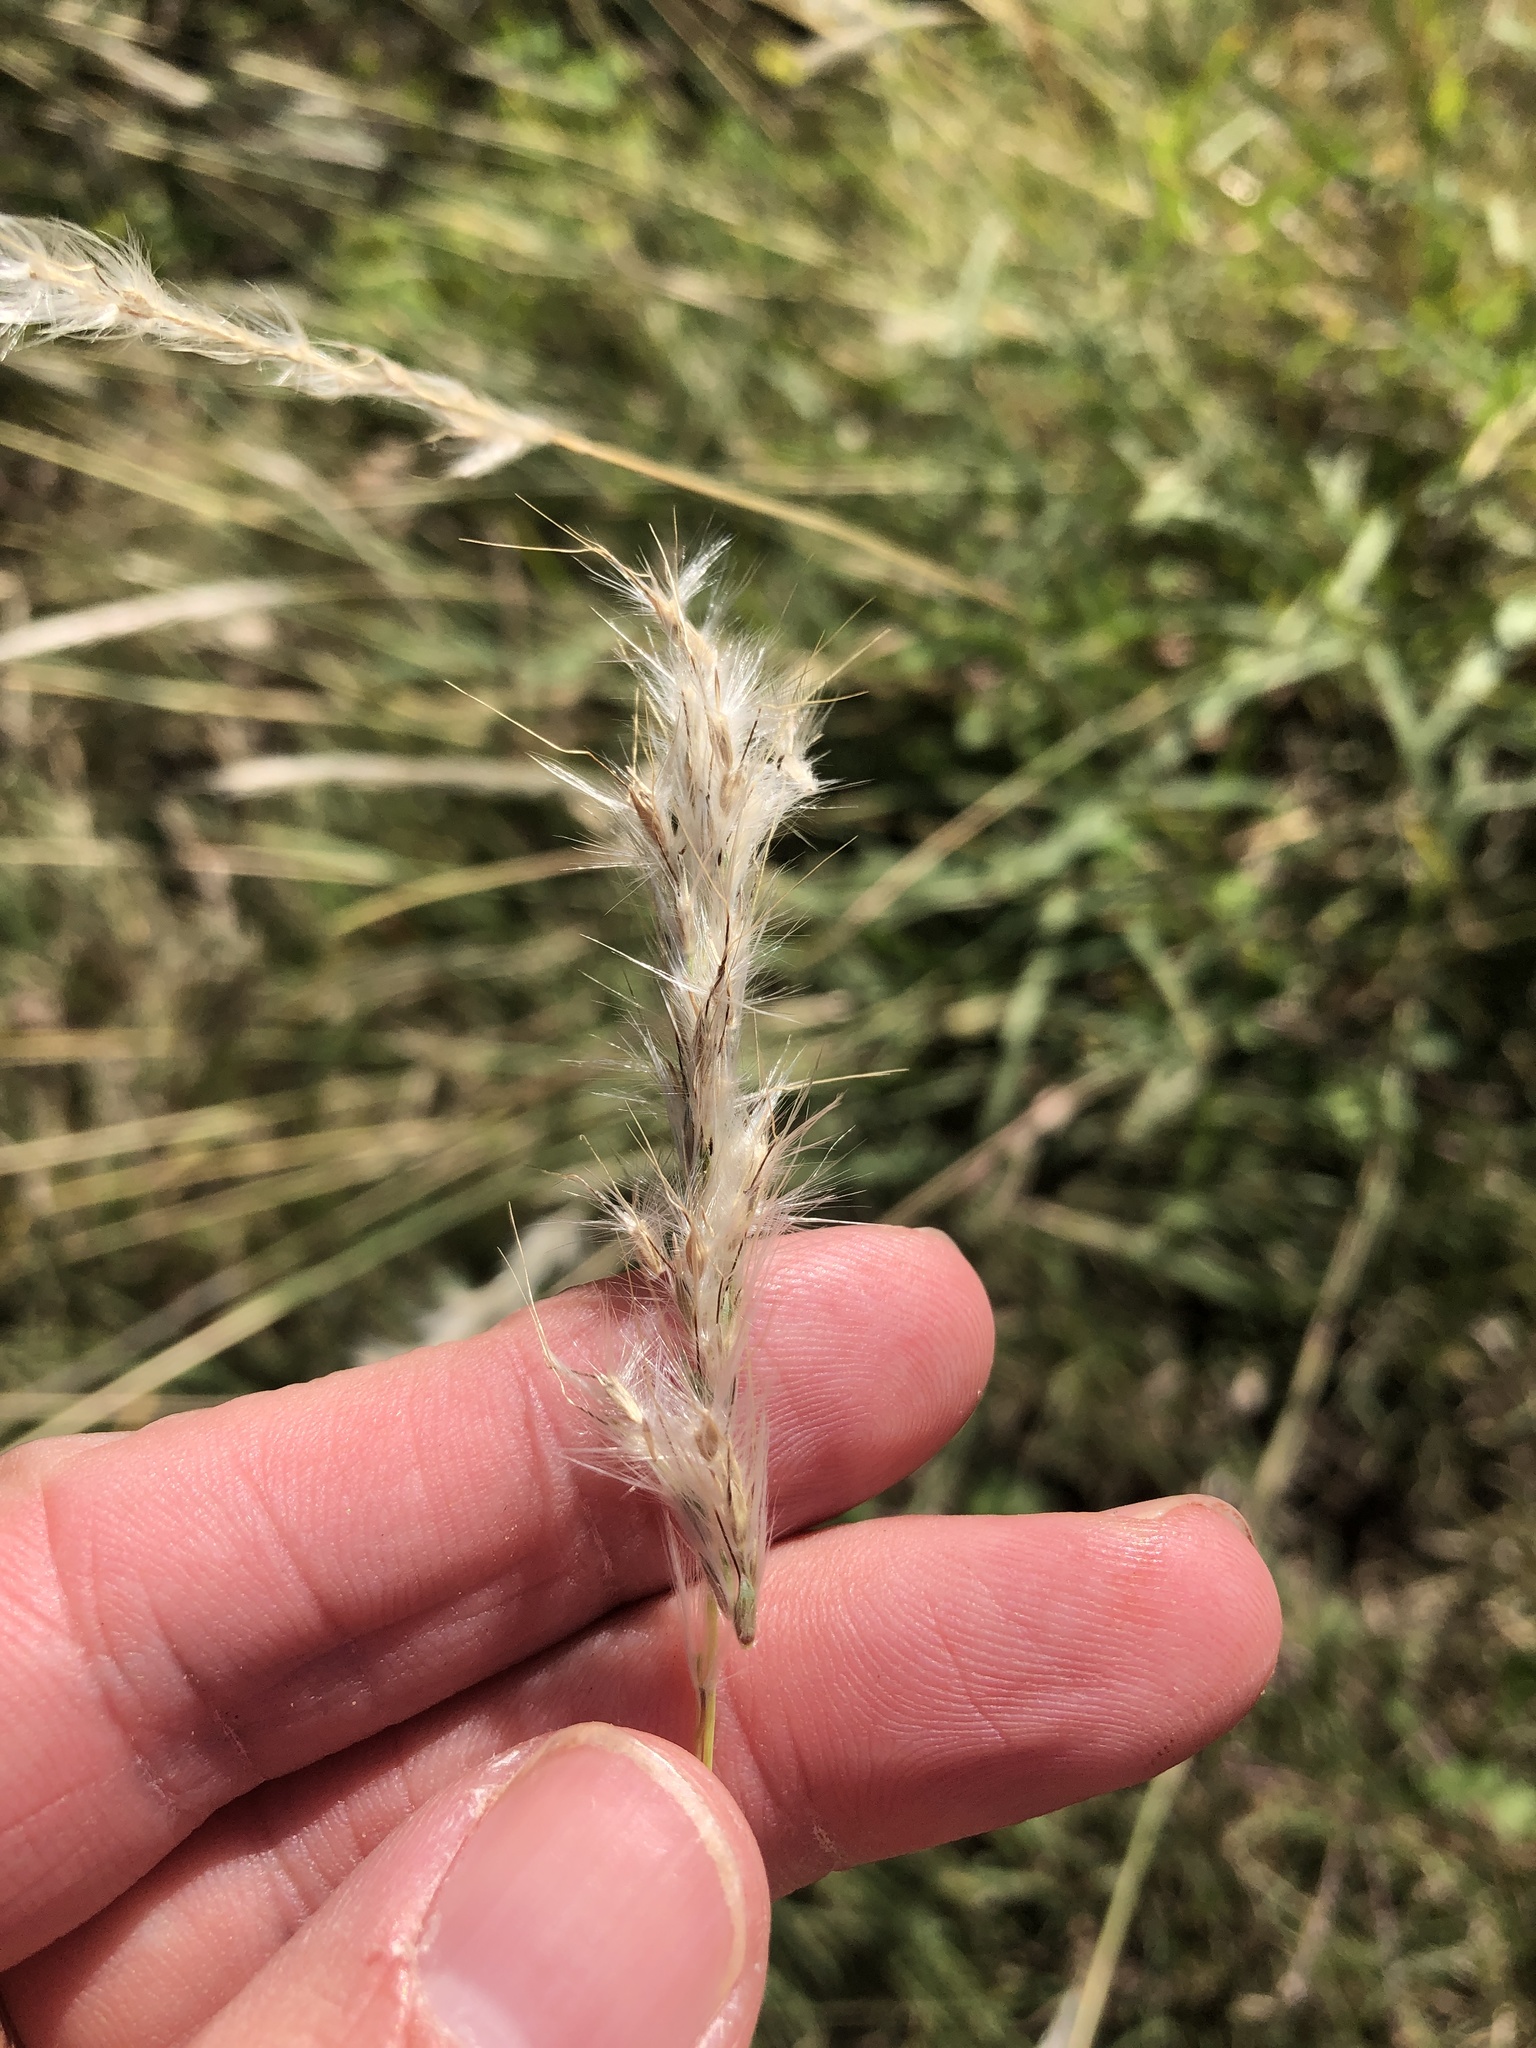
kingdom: Plantae
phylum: Tracheophyta
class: Liliopsida
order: Poales
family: Poaceae
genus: Bothriochloa
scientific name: Bothriochloa torreyana
